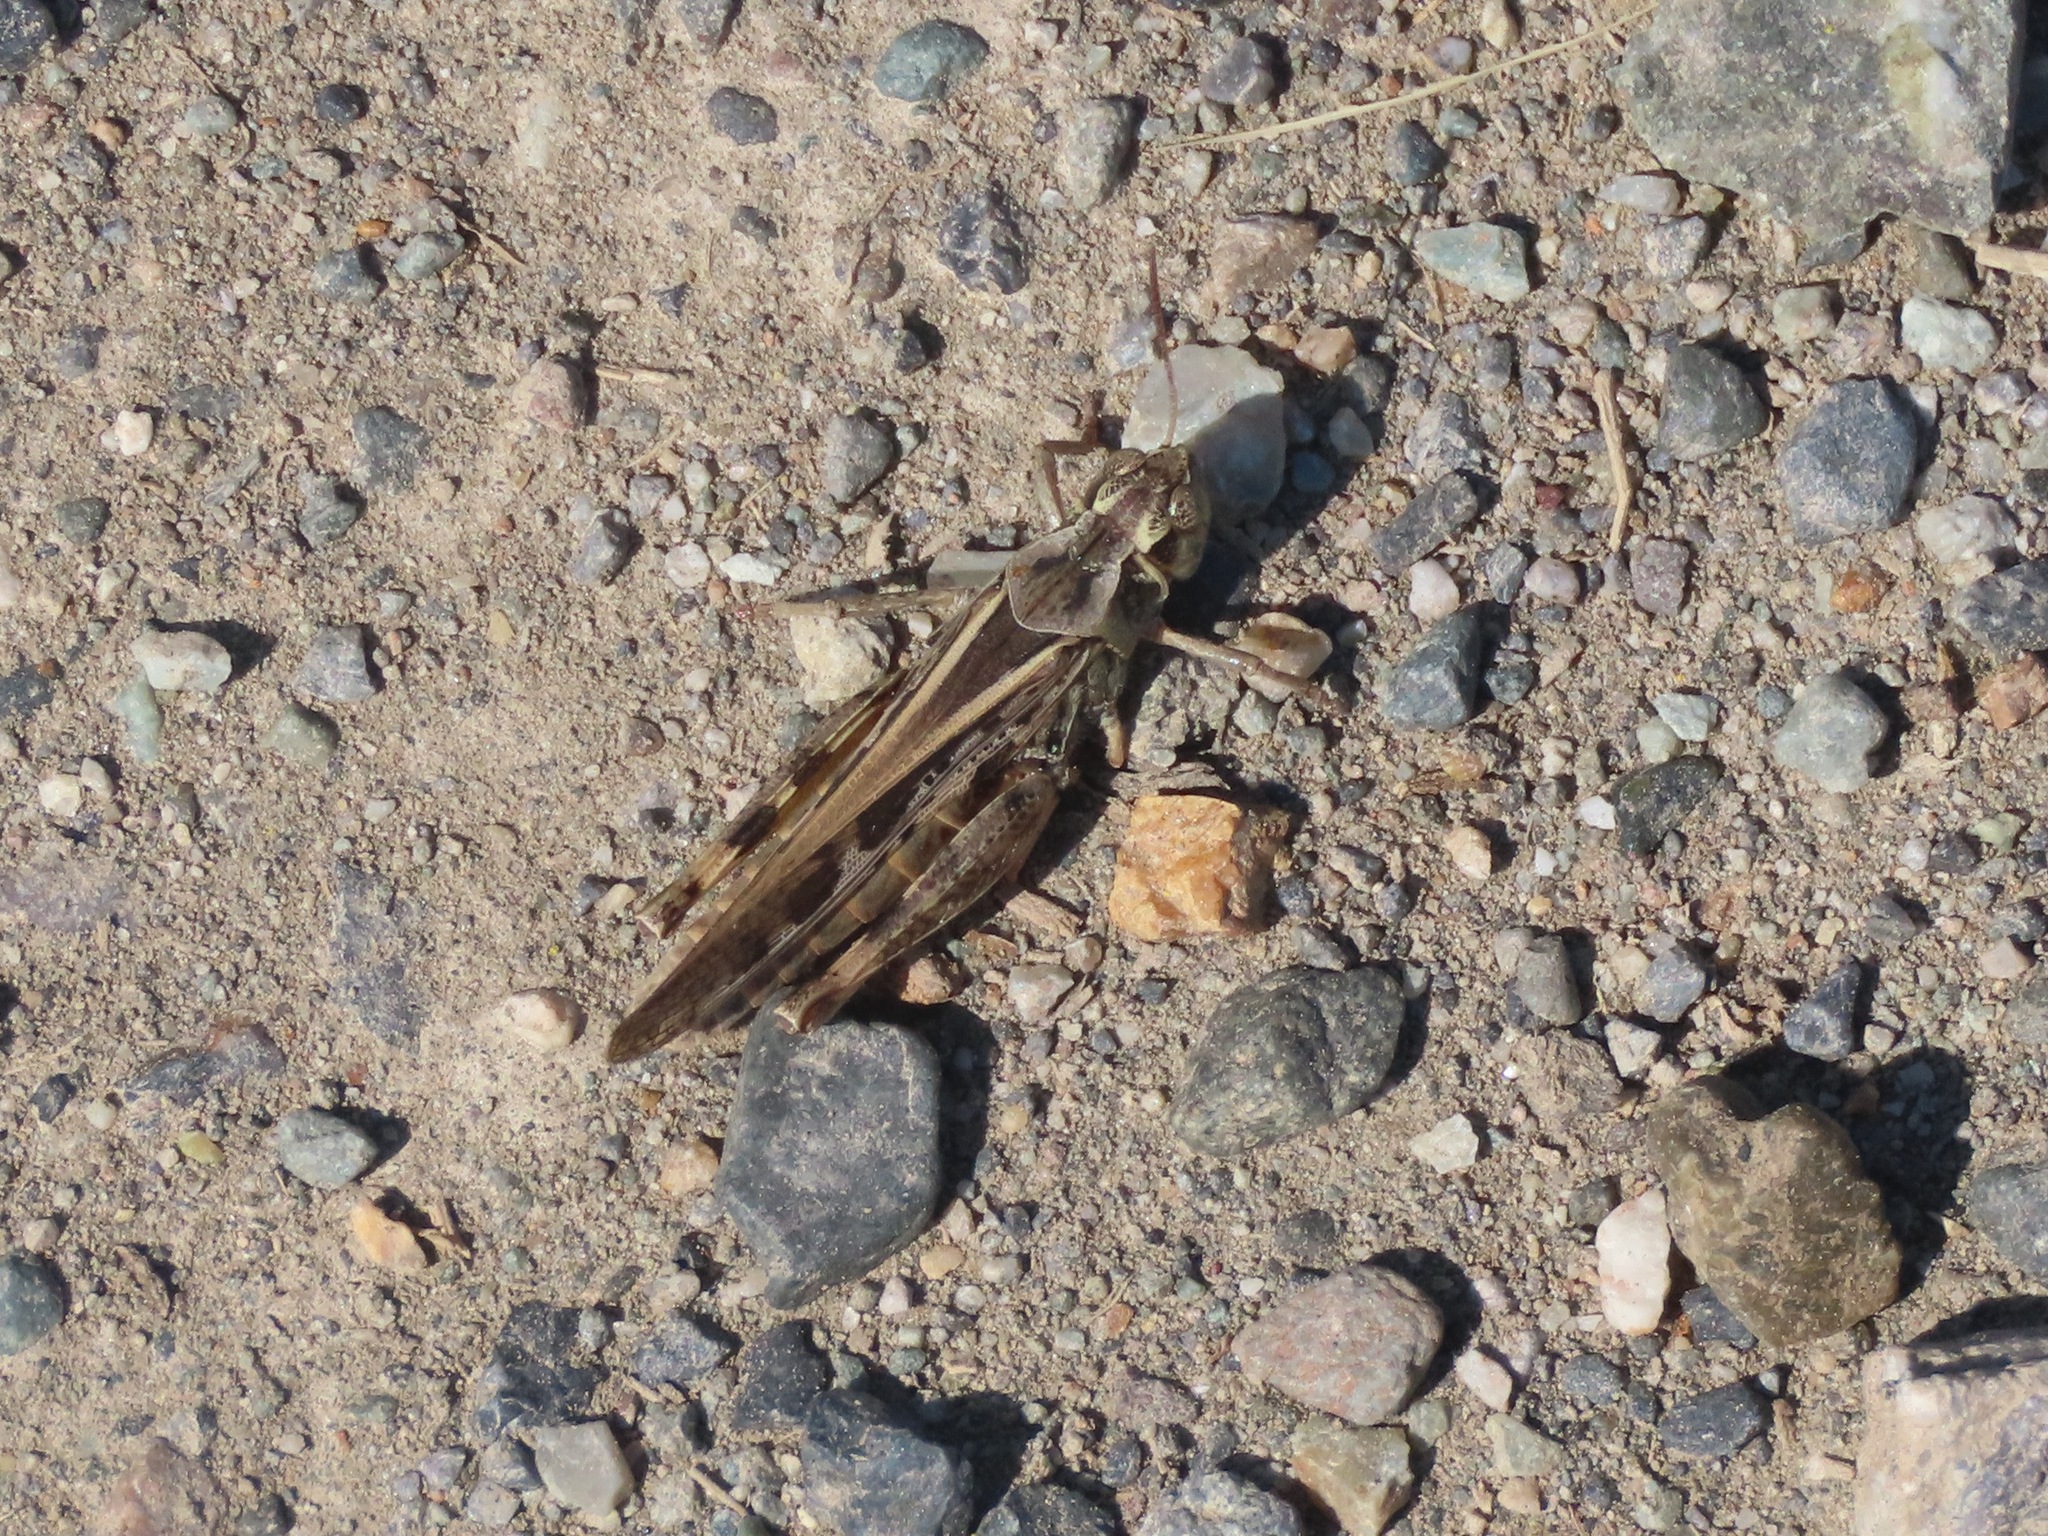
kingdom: Animalia
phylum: Arthropoda
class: Insecta
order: Orthoptera
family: Acrididae
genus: Camnula
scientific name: Camnula pellucida
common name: Clear-winged grasshopper
